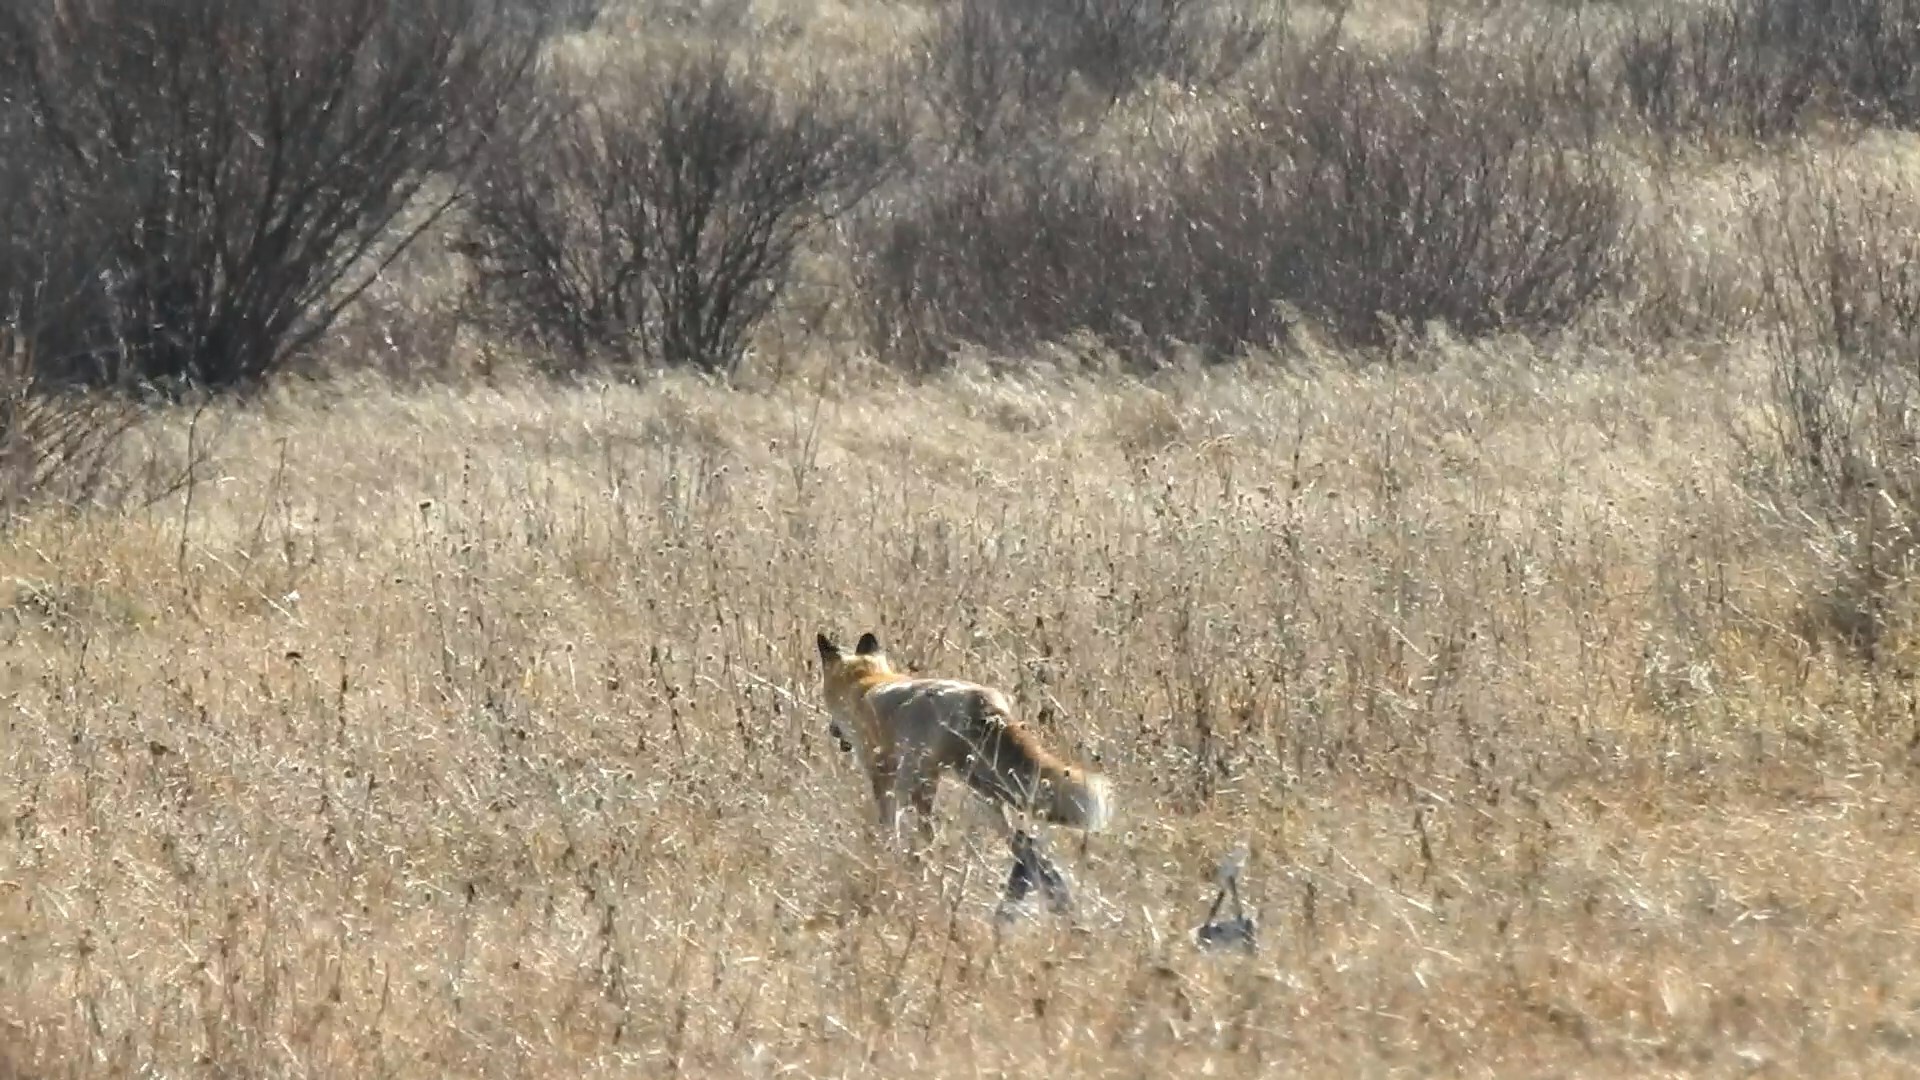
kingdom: Animalia
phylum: Chordata
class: Mammalia
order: Carnivora
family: Canidae
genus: Vulpes
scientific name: Vulpes vulpes
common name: Red fox
